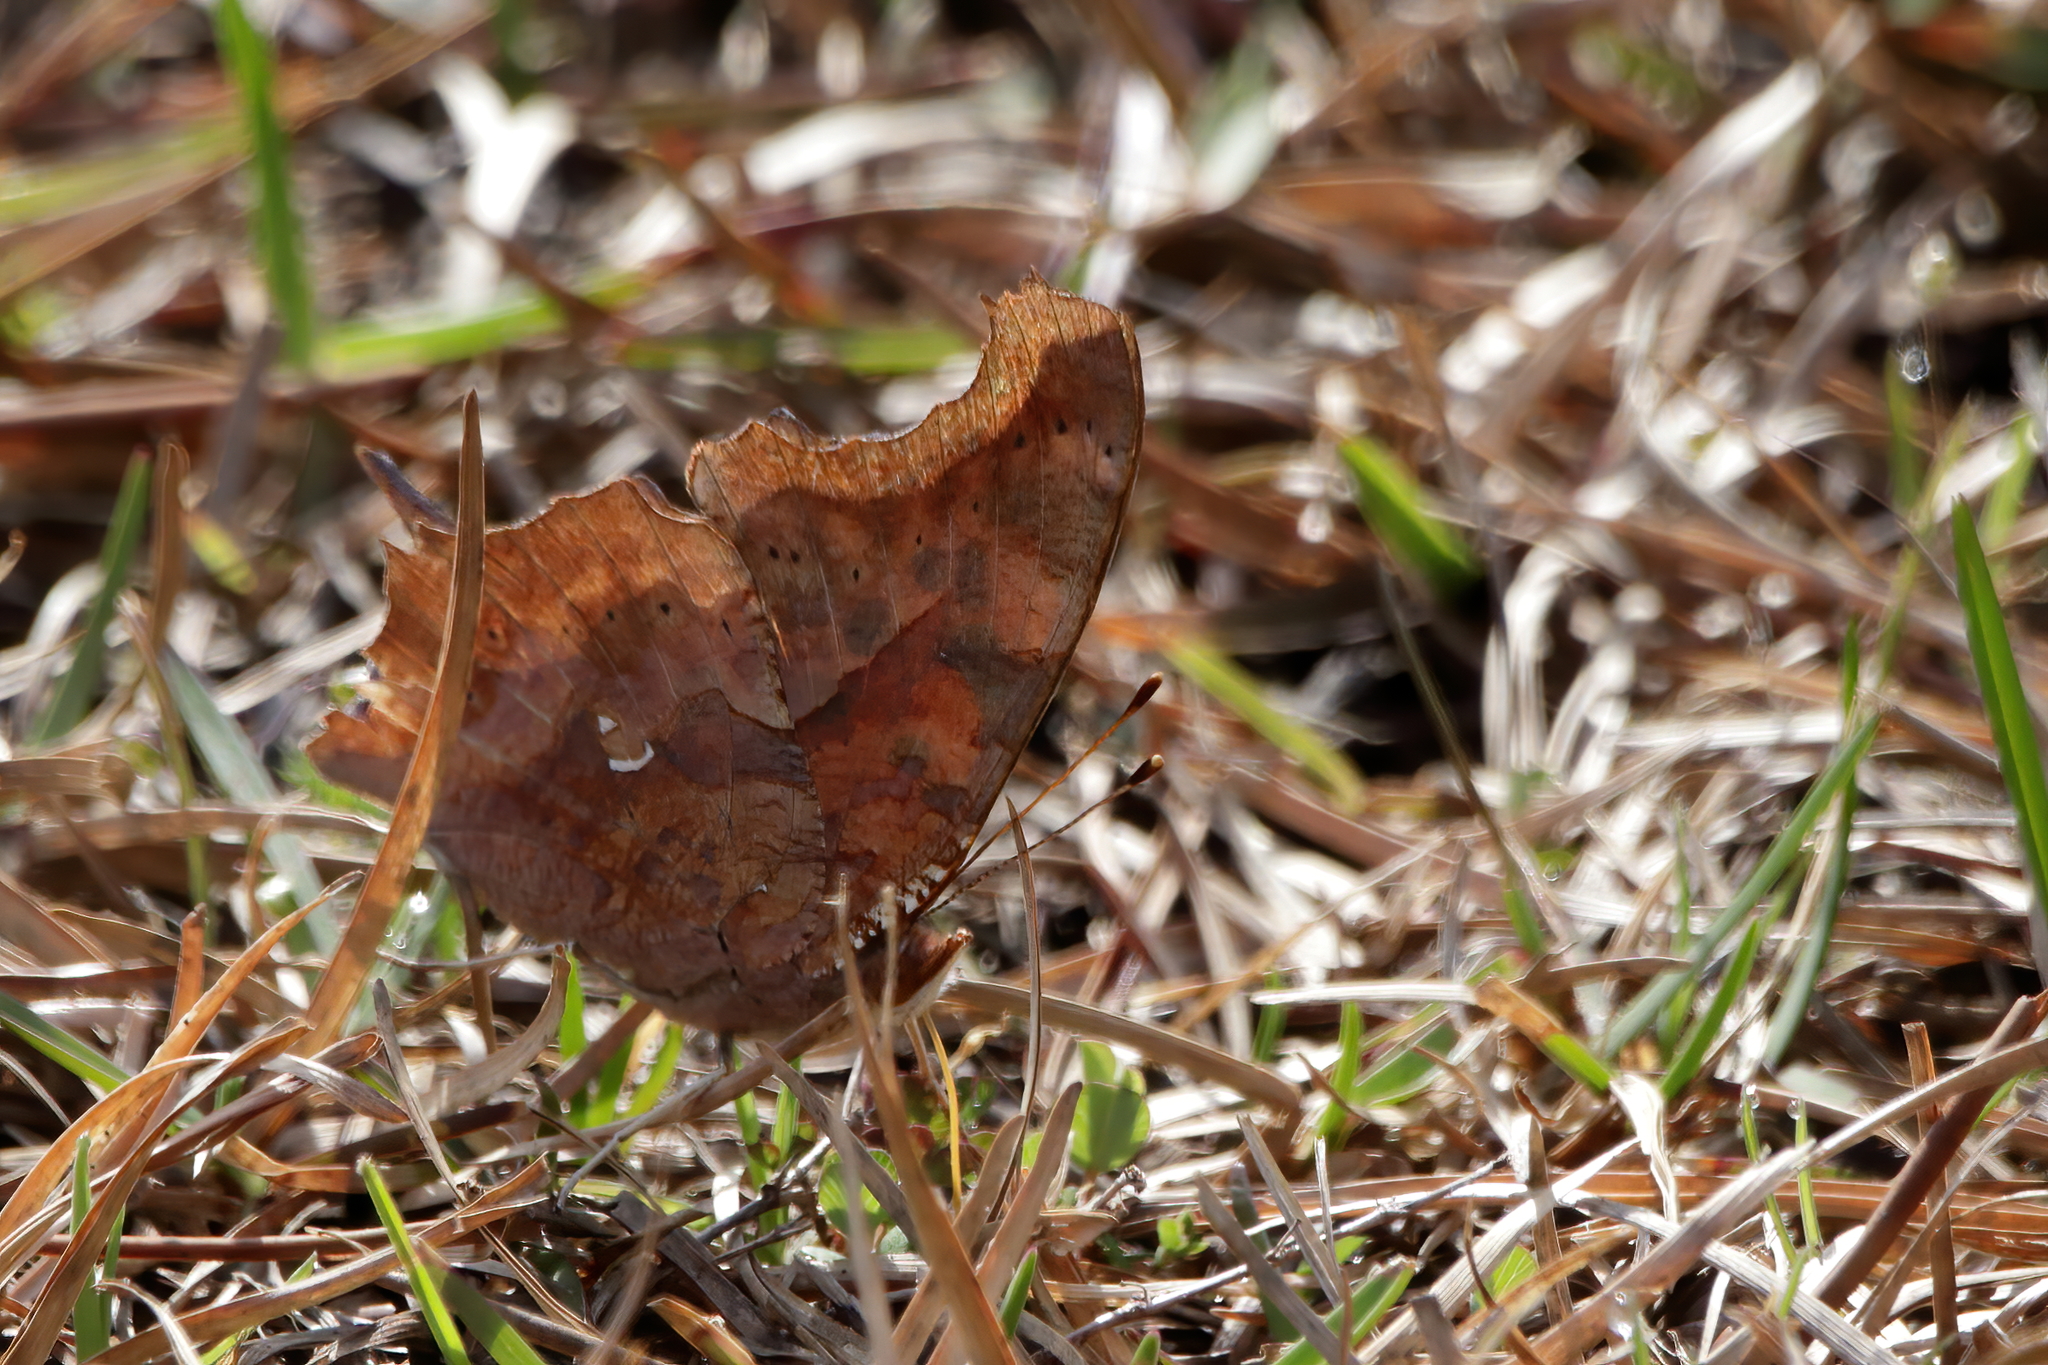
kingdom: Animalia
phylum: Arthropoda
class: Insecta
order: Lepidoptera
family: Nymphalidae
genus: Polygonia
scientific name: Polygonia interrogationis
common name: Question mark
